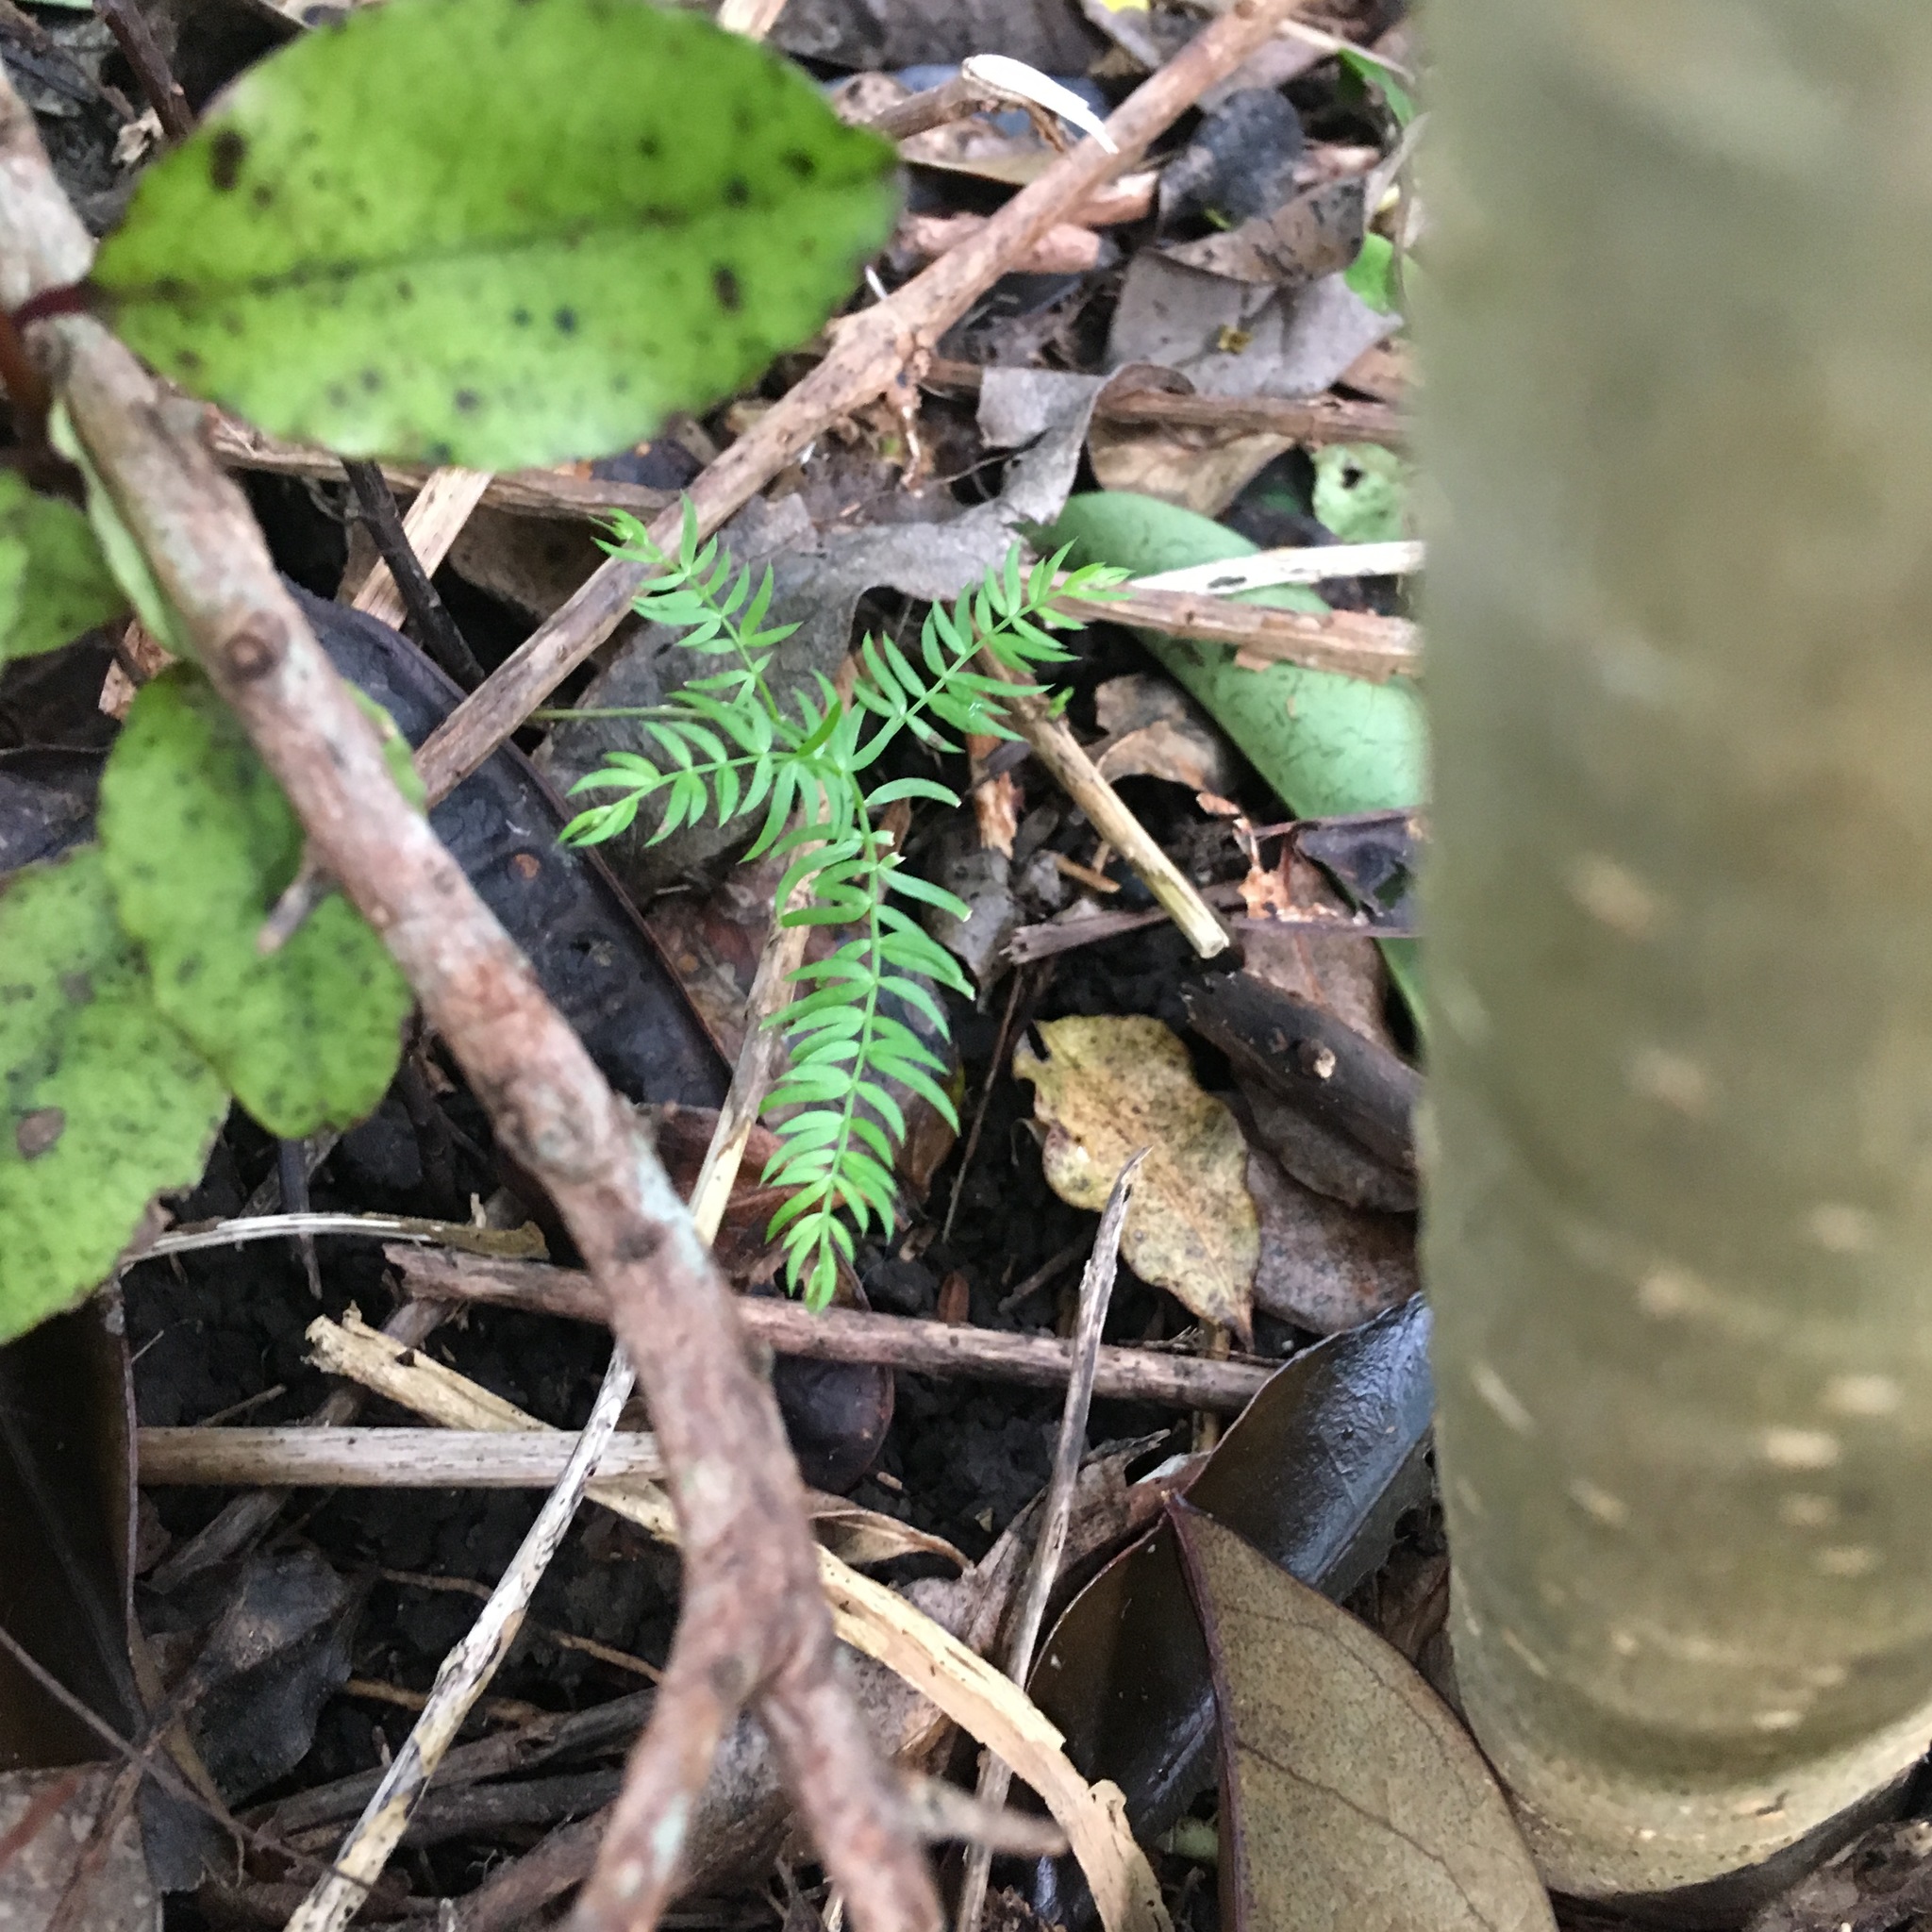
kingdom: Plantae
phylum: Tracheophyta
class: Liliopsida
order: Asparagales
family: Asparagaceae
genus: Asparagus
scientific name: Asparagus scandens
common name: Asparagus-fern
